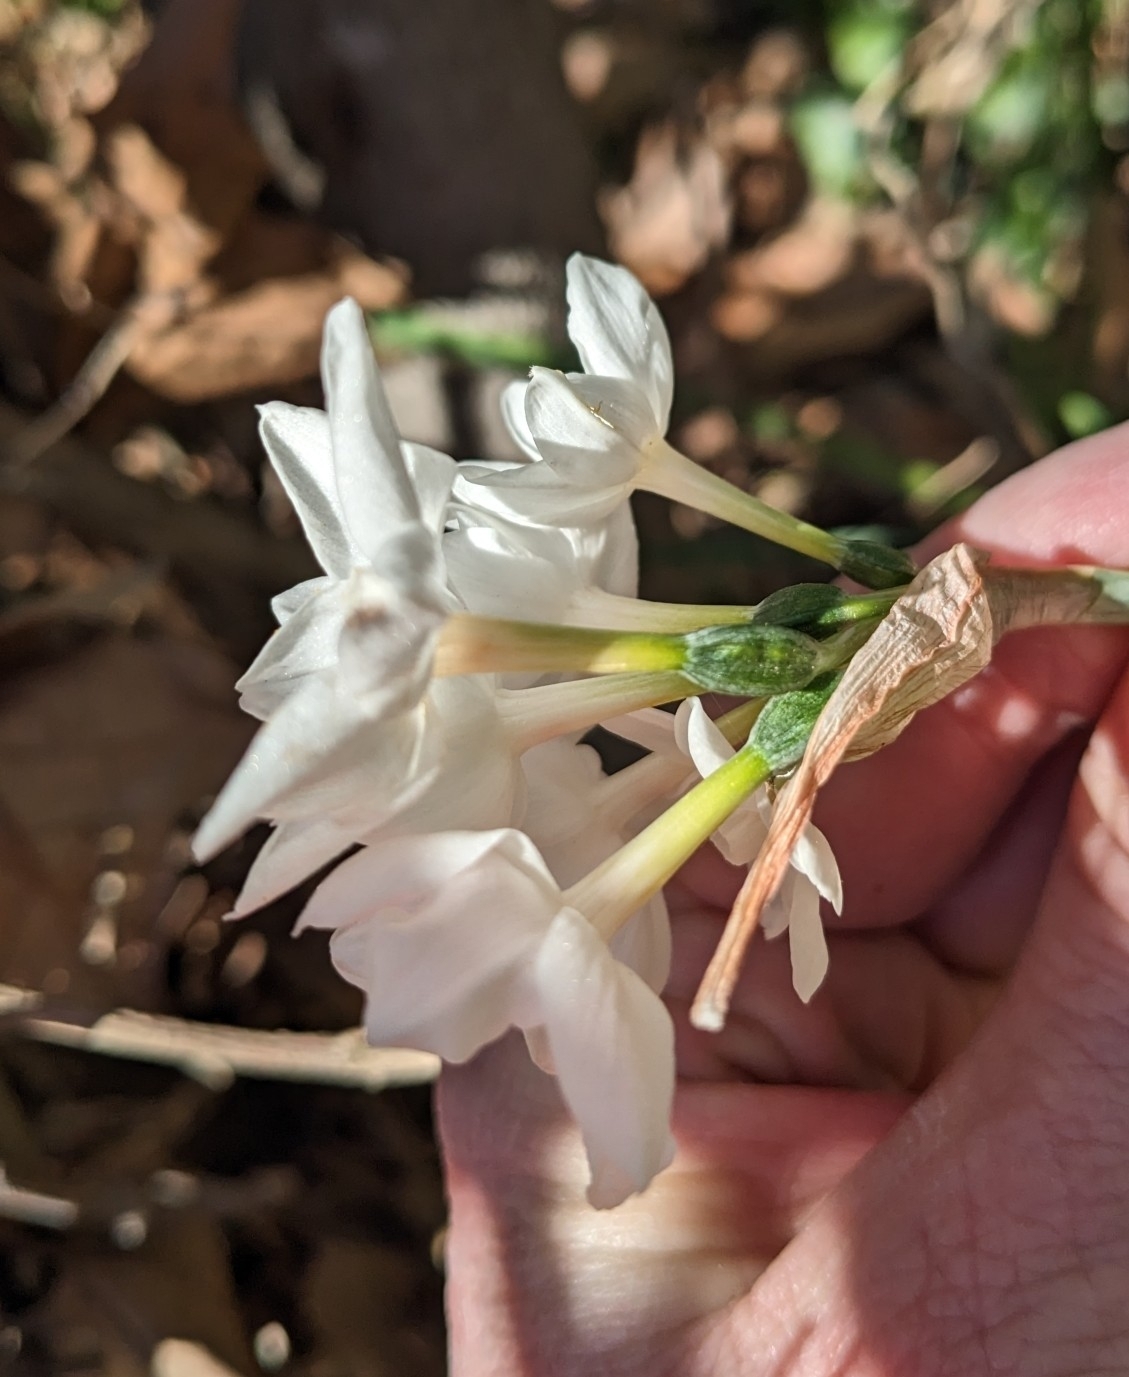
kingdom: Plantae
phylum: Tracheophyta
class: Liliopsida
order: Asparagales
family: Amaryllidaceae
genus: Narcissus
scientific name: Narcissus papyraceus
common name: Paper-white daffodil
